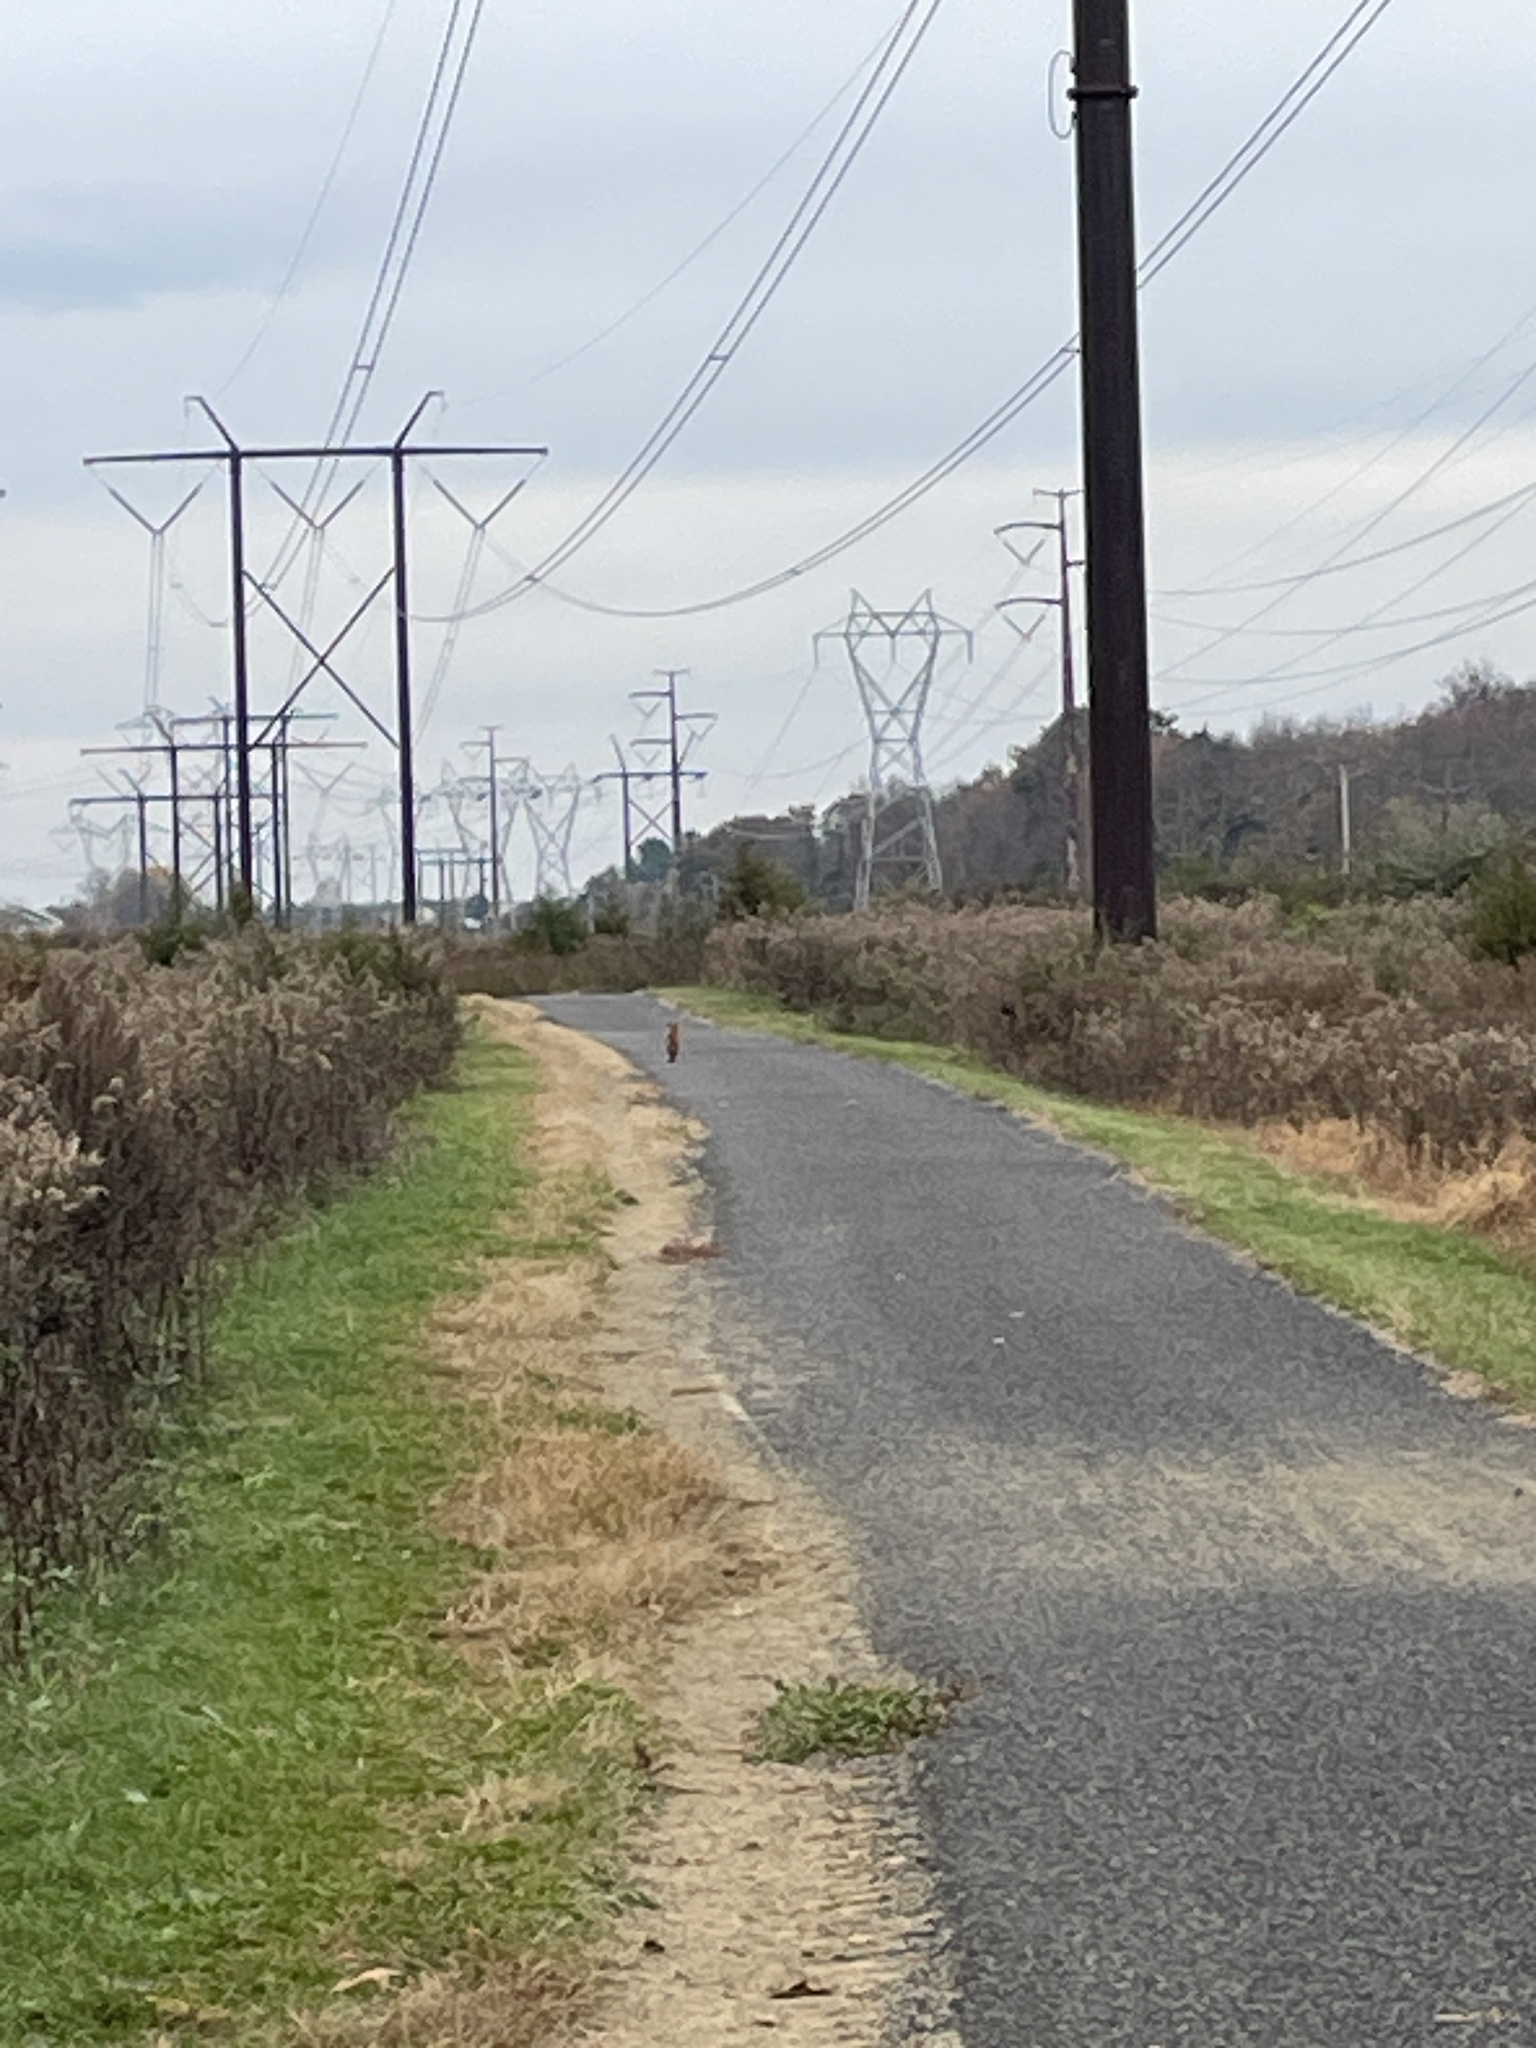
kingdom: Animalia
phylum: Chordata
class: Mammalia
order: Carnivora
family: Canidae
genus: Vulpes
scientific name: Vulpes vulpes
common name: Red fox
